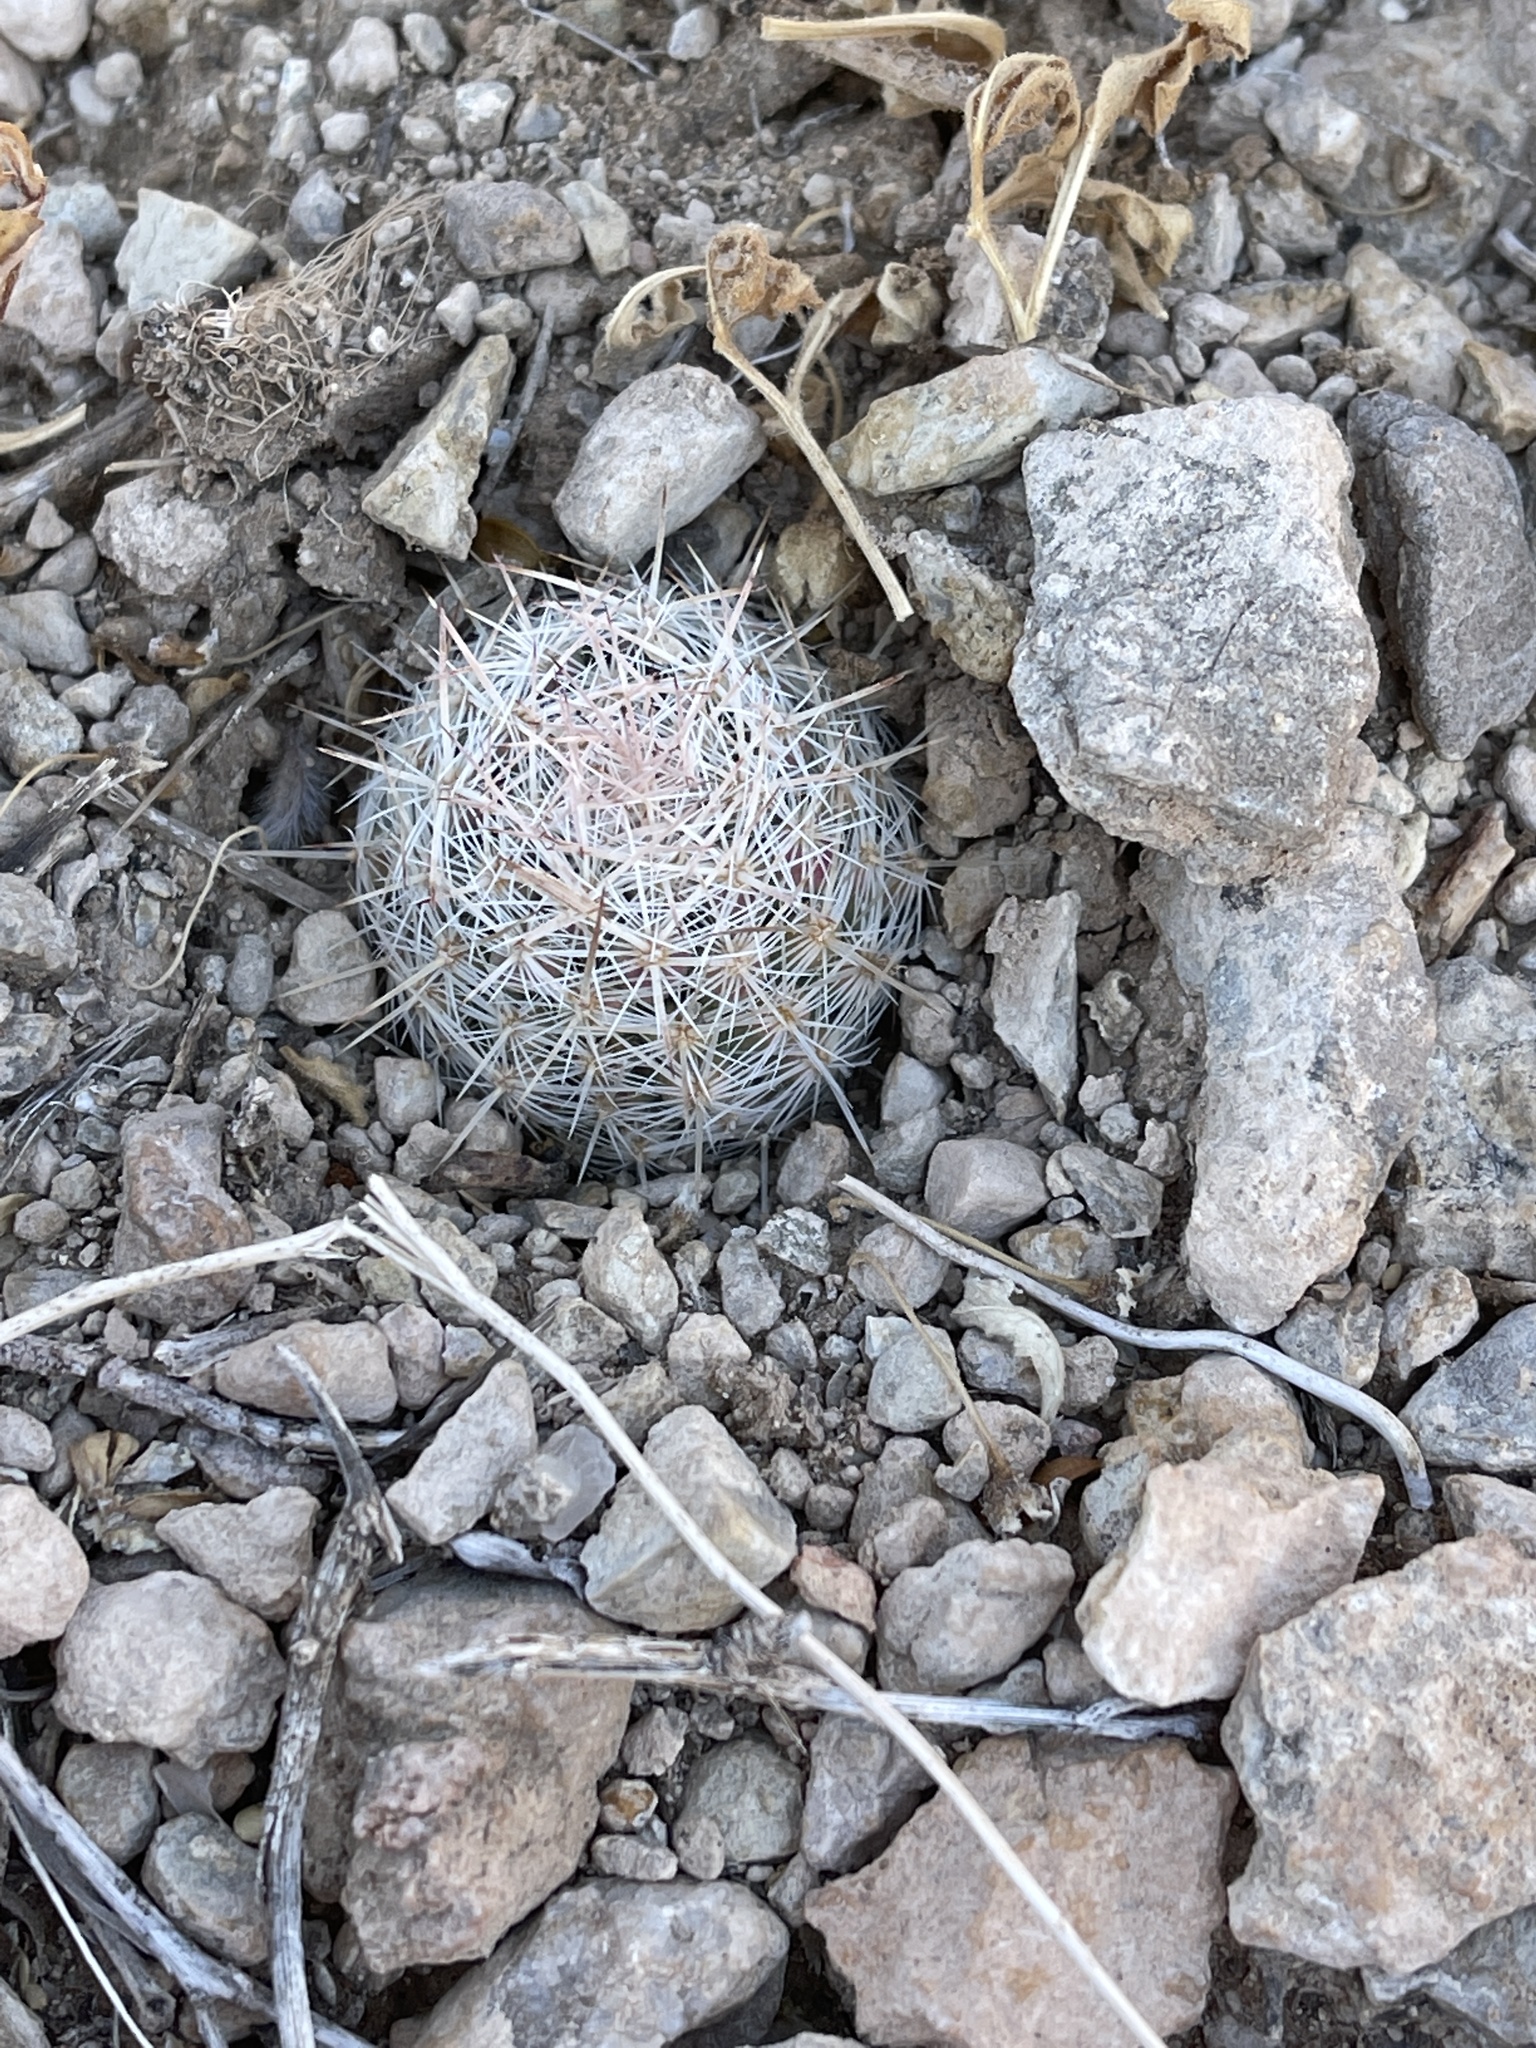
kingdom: Plantae
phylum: Tracheophyta
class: Magnoliopsida
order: Caryophyllales
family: Cactaceae
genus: Pelecyphora
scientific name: Pelecyphora tuberculosa
